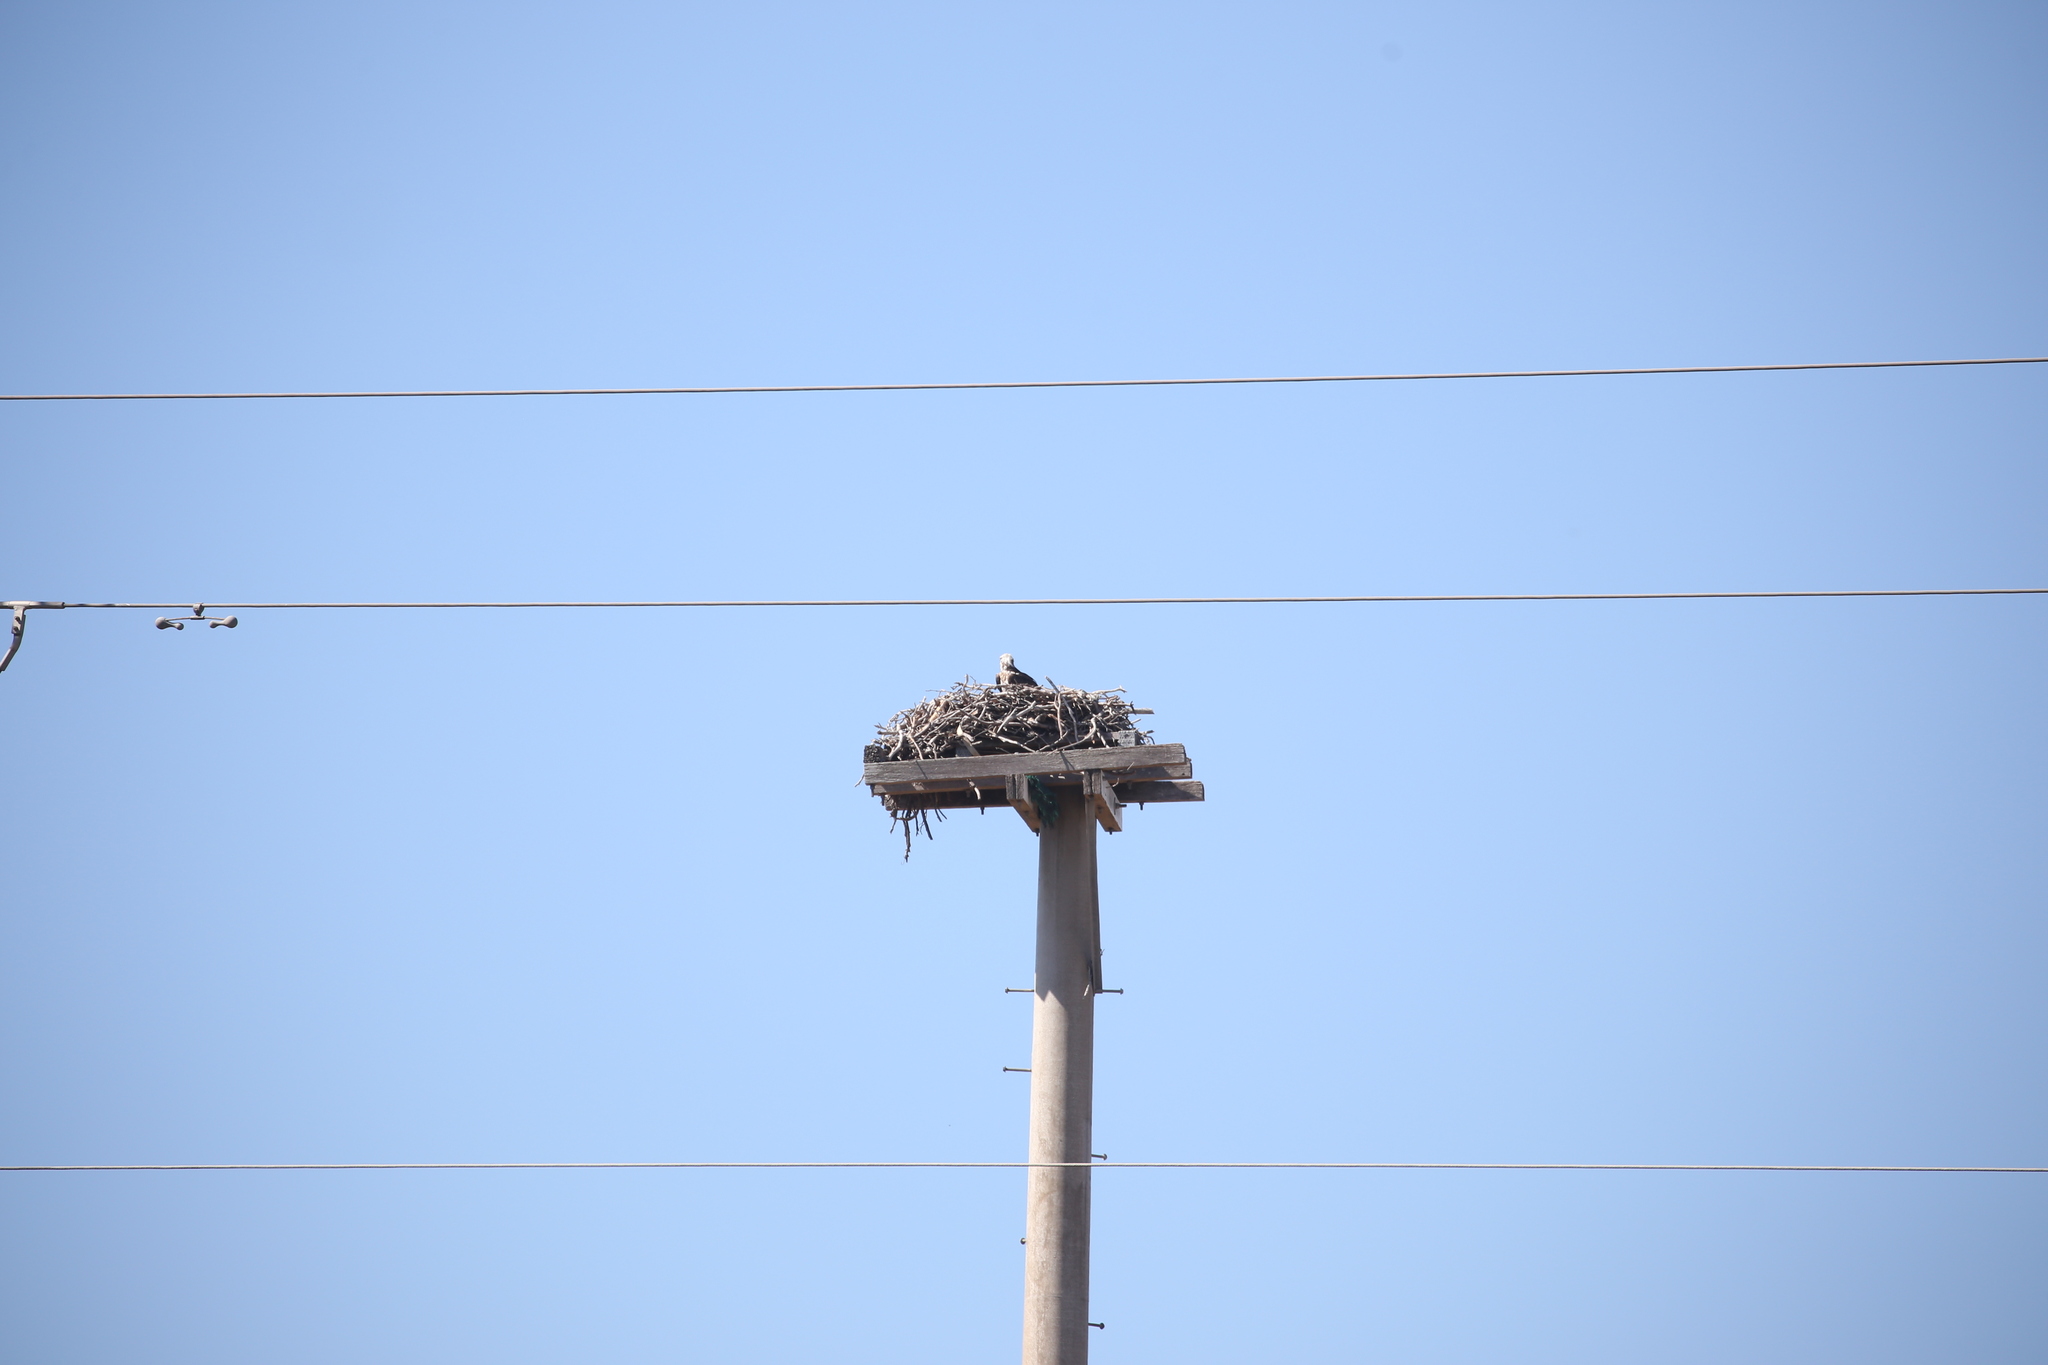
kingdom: Animalia
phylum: Chordata
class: Aves
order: Accipitriformes
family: Pandionidae
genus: Pandion
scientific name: Pandion haliaetus
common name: Osprey
